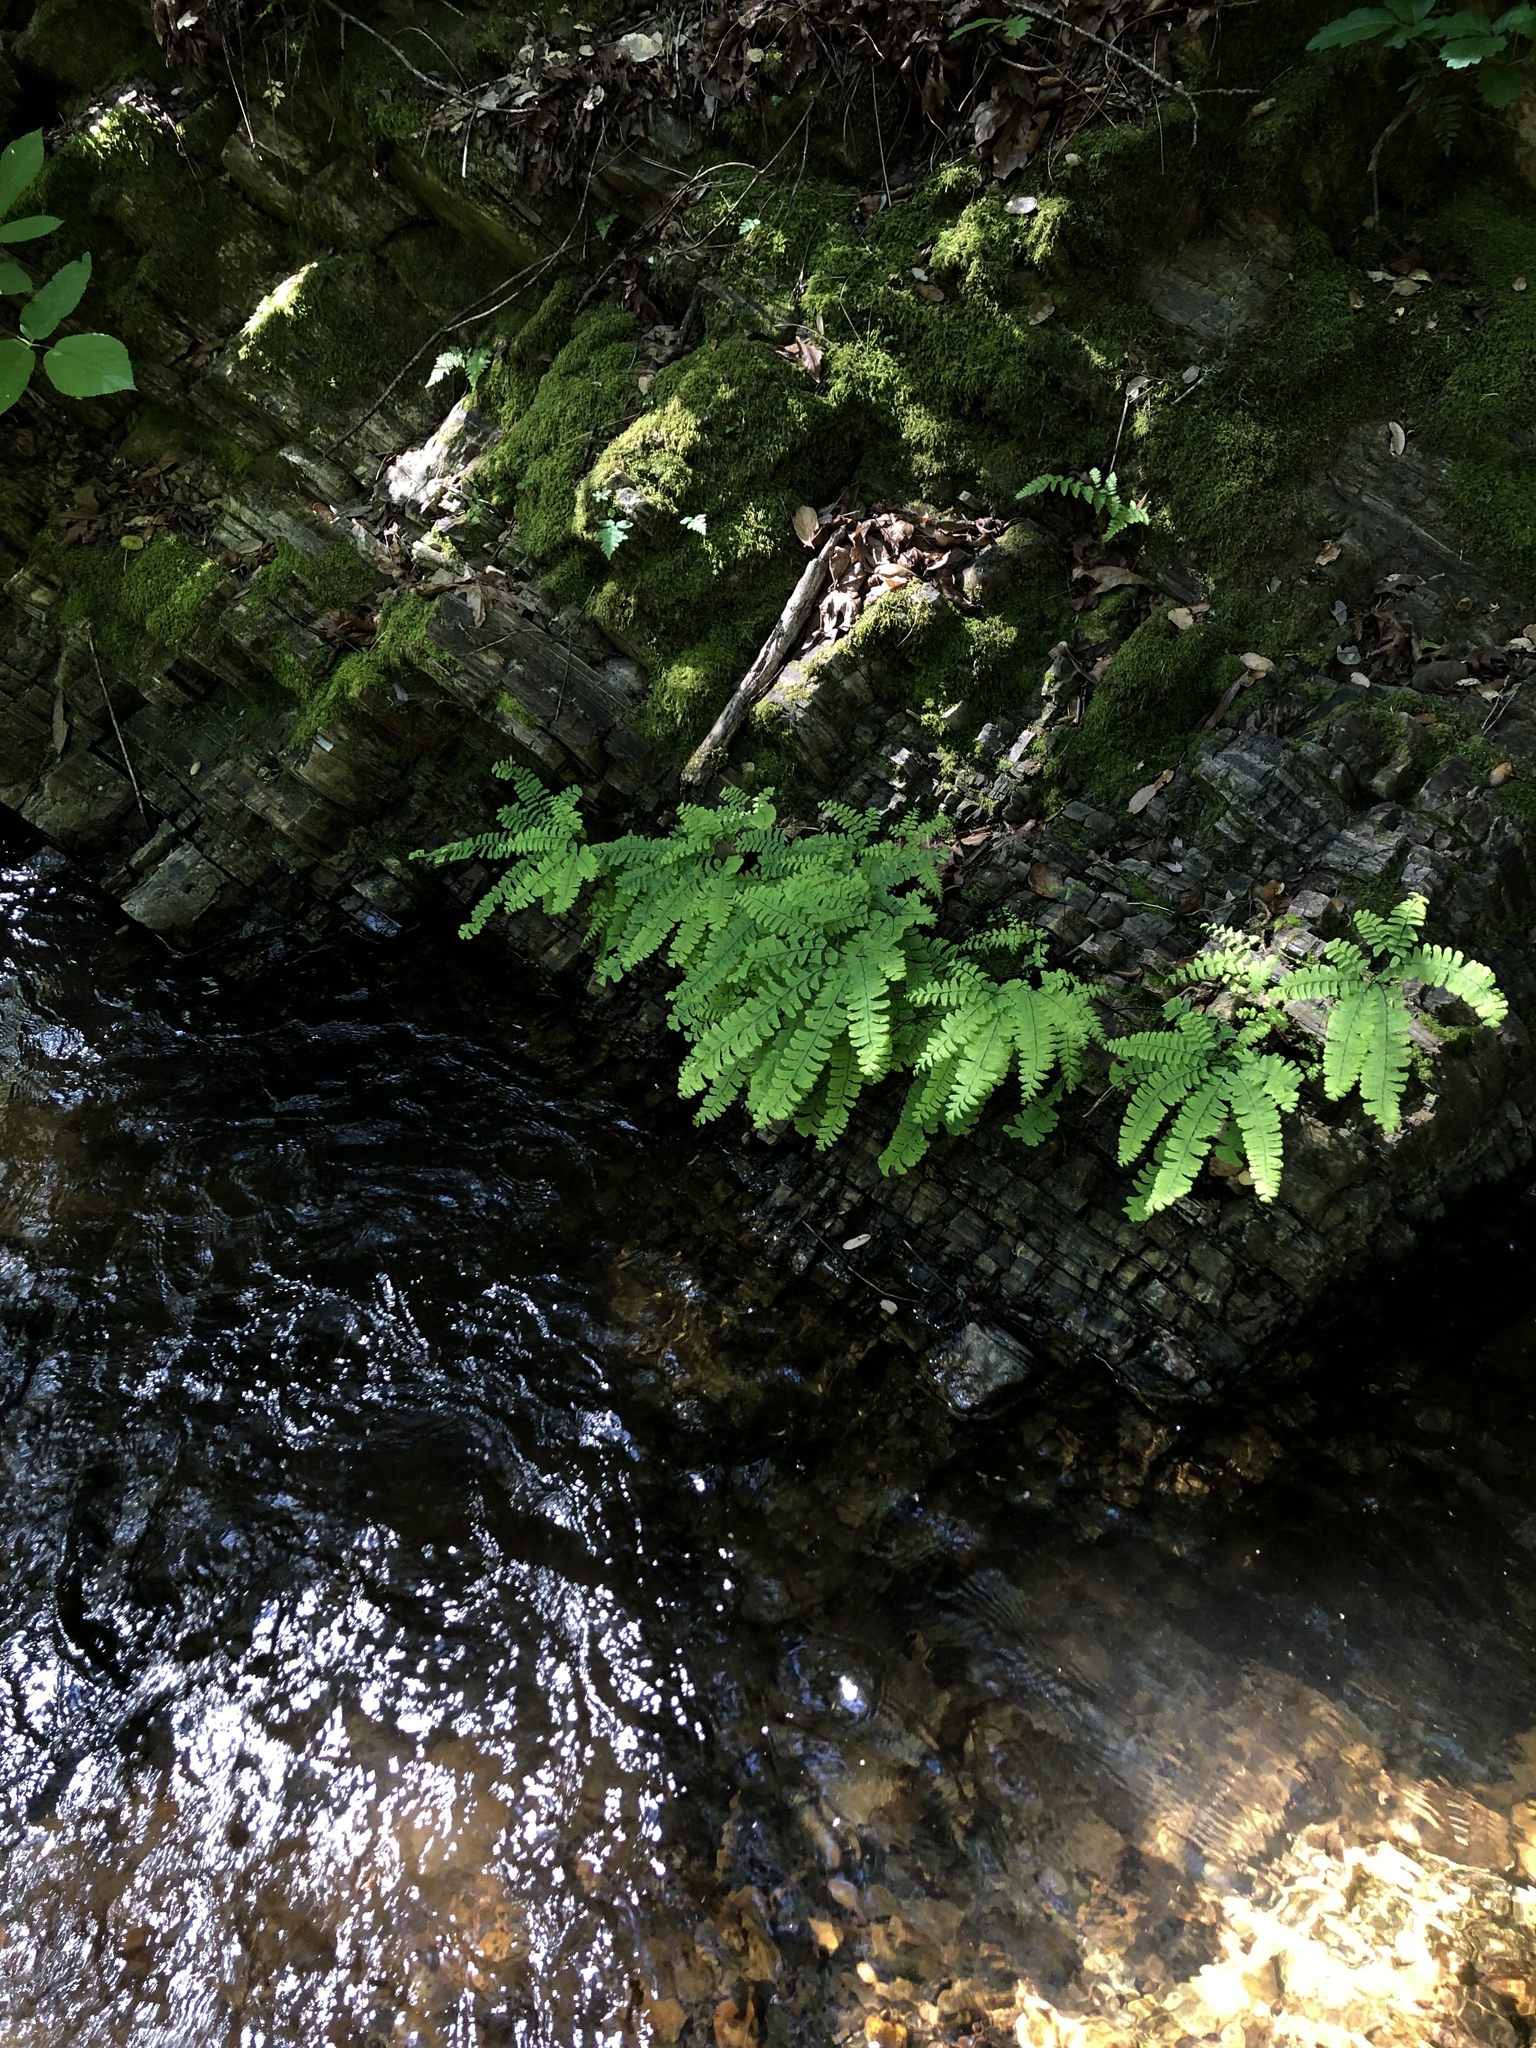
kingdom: Plantae
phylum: Tracheophyta
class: Polypodiopsida
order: Polypodiales
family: Pteridaceae
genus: Adiantum
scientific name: Adiantum aleuticum
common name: Aleutian maidenhair fern
